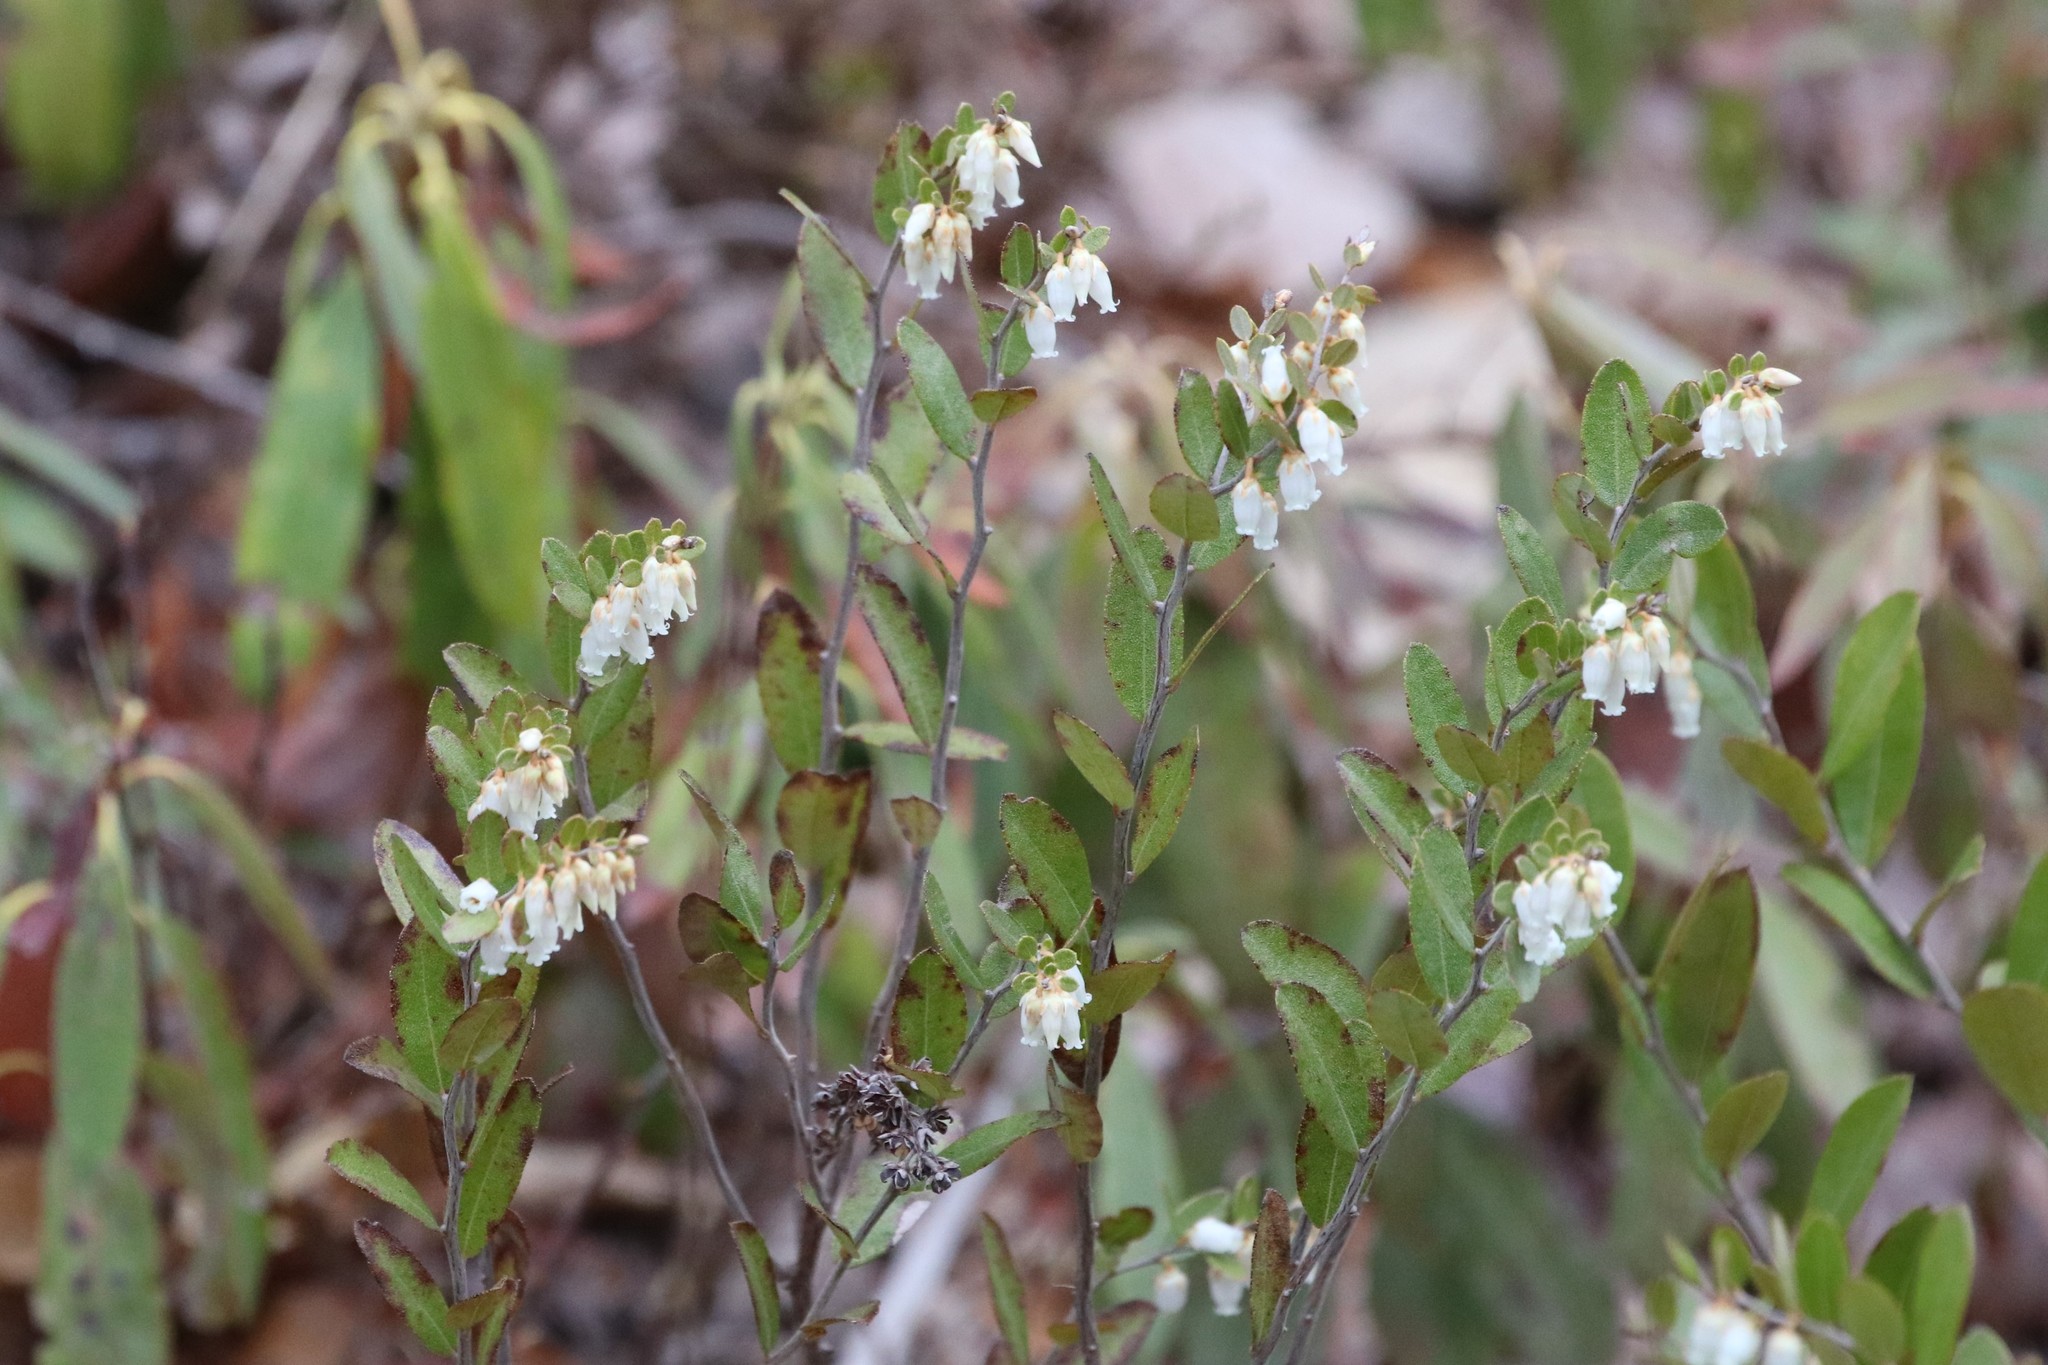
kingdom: Plantae
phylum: Tracheophyta
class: Magnoliopsida
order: Ericales
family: Ericaceae
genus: Chamaedaphne
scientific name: Chamaedaphne calyculata
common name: Leatherleaf
